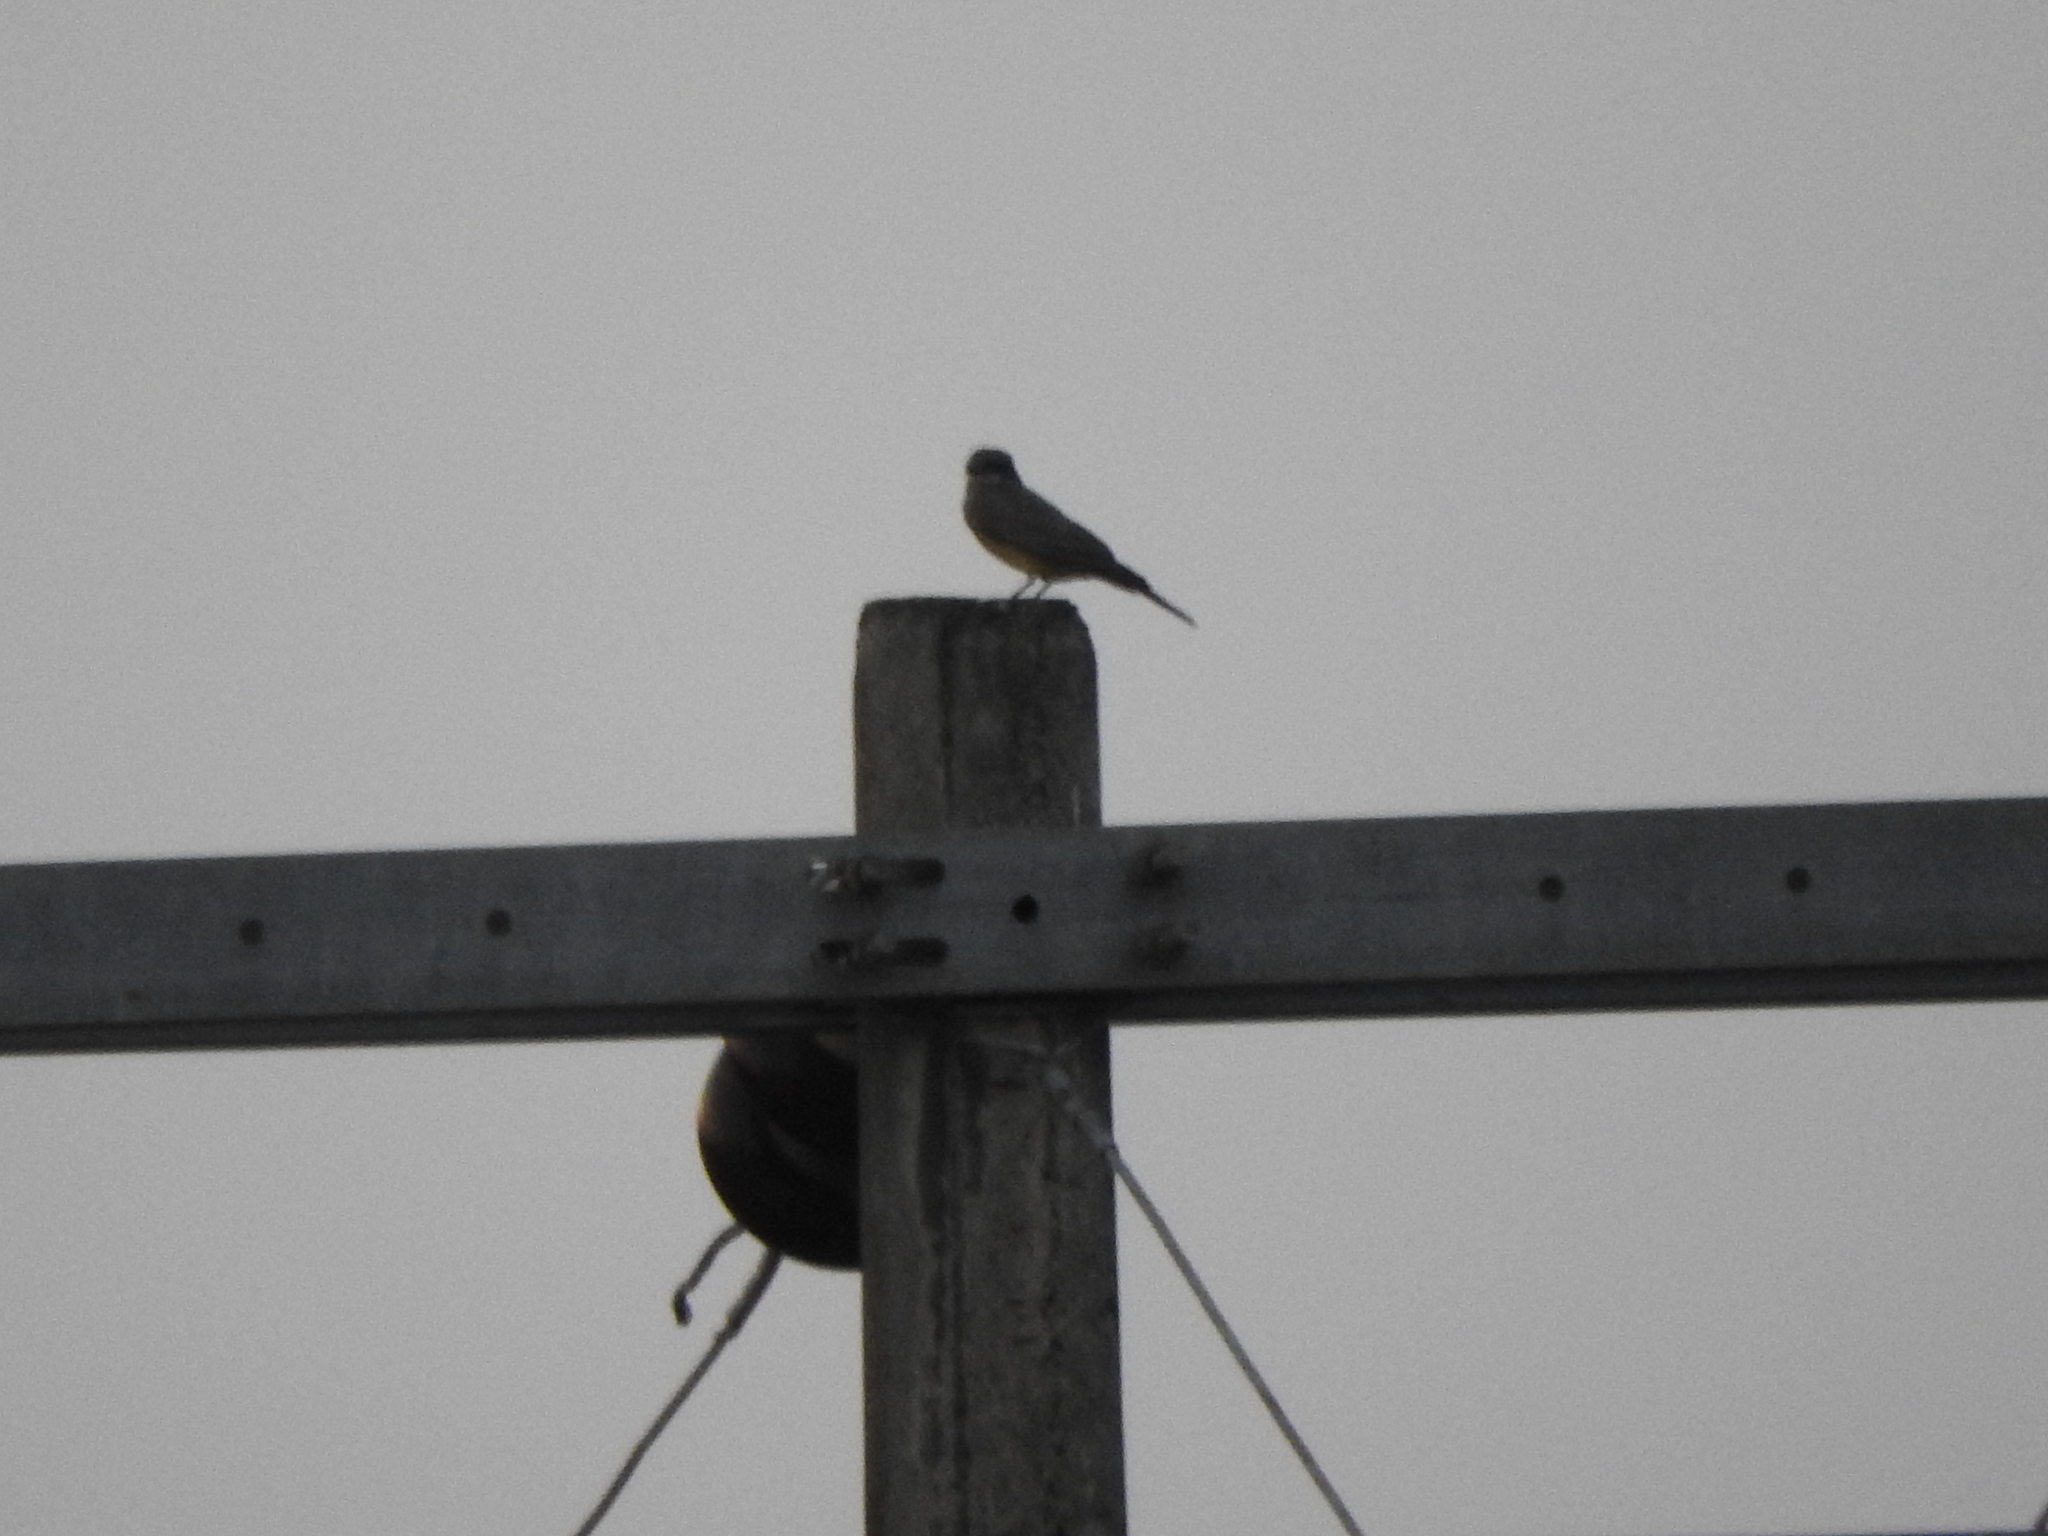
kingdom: Animalia
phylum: Chordata
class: Aves
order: Passeriformes
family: Tyrannidae
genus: Tyrannus
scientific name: Tyrannus vociferans
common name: Cassin's kingbird
